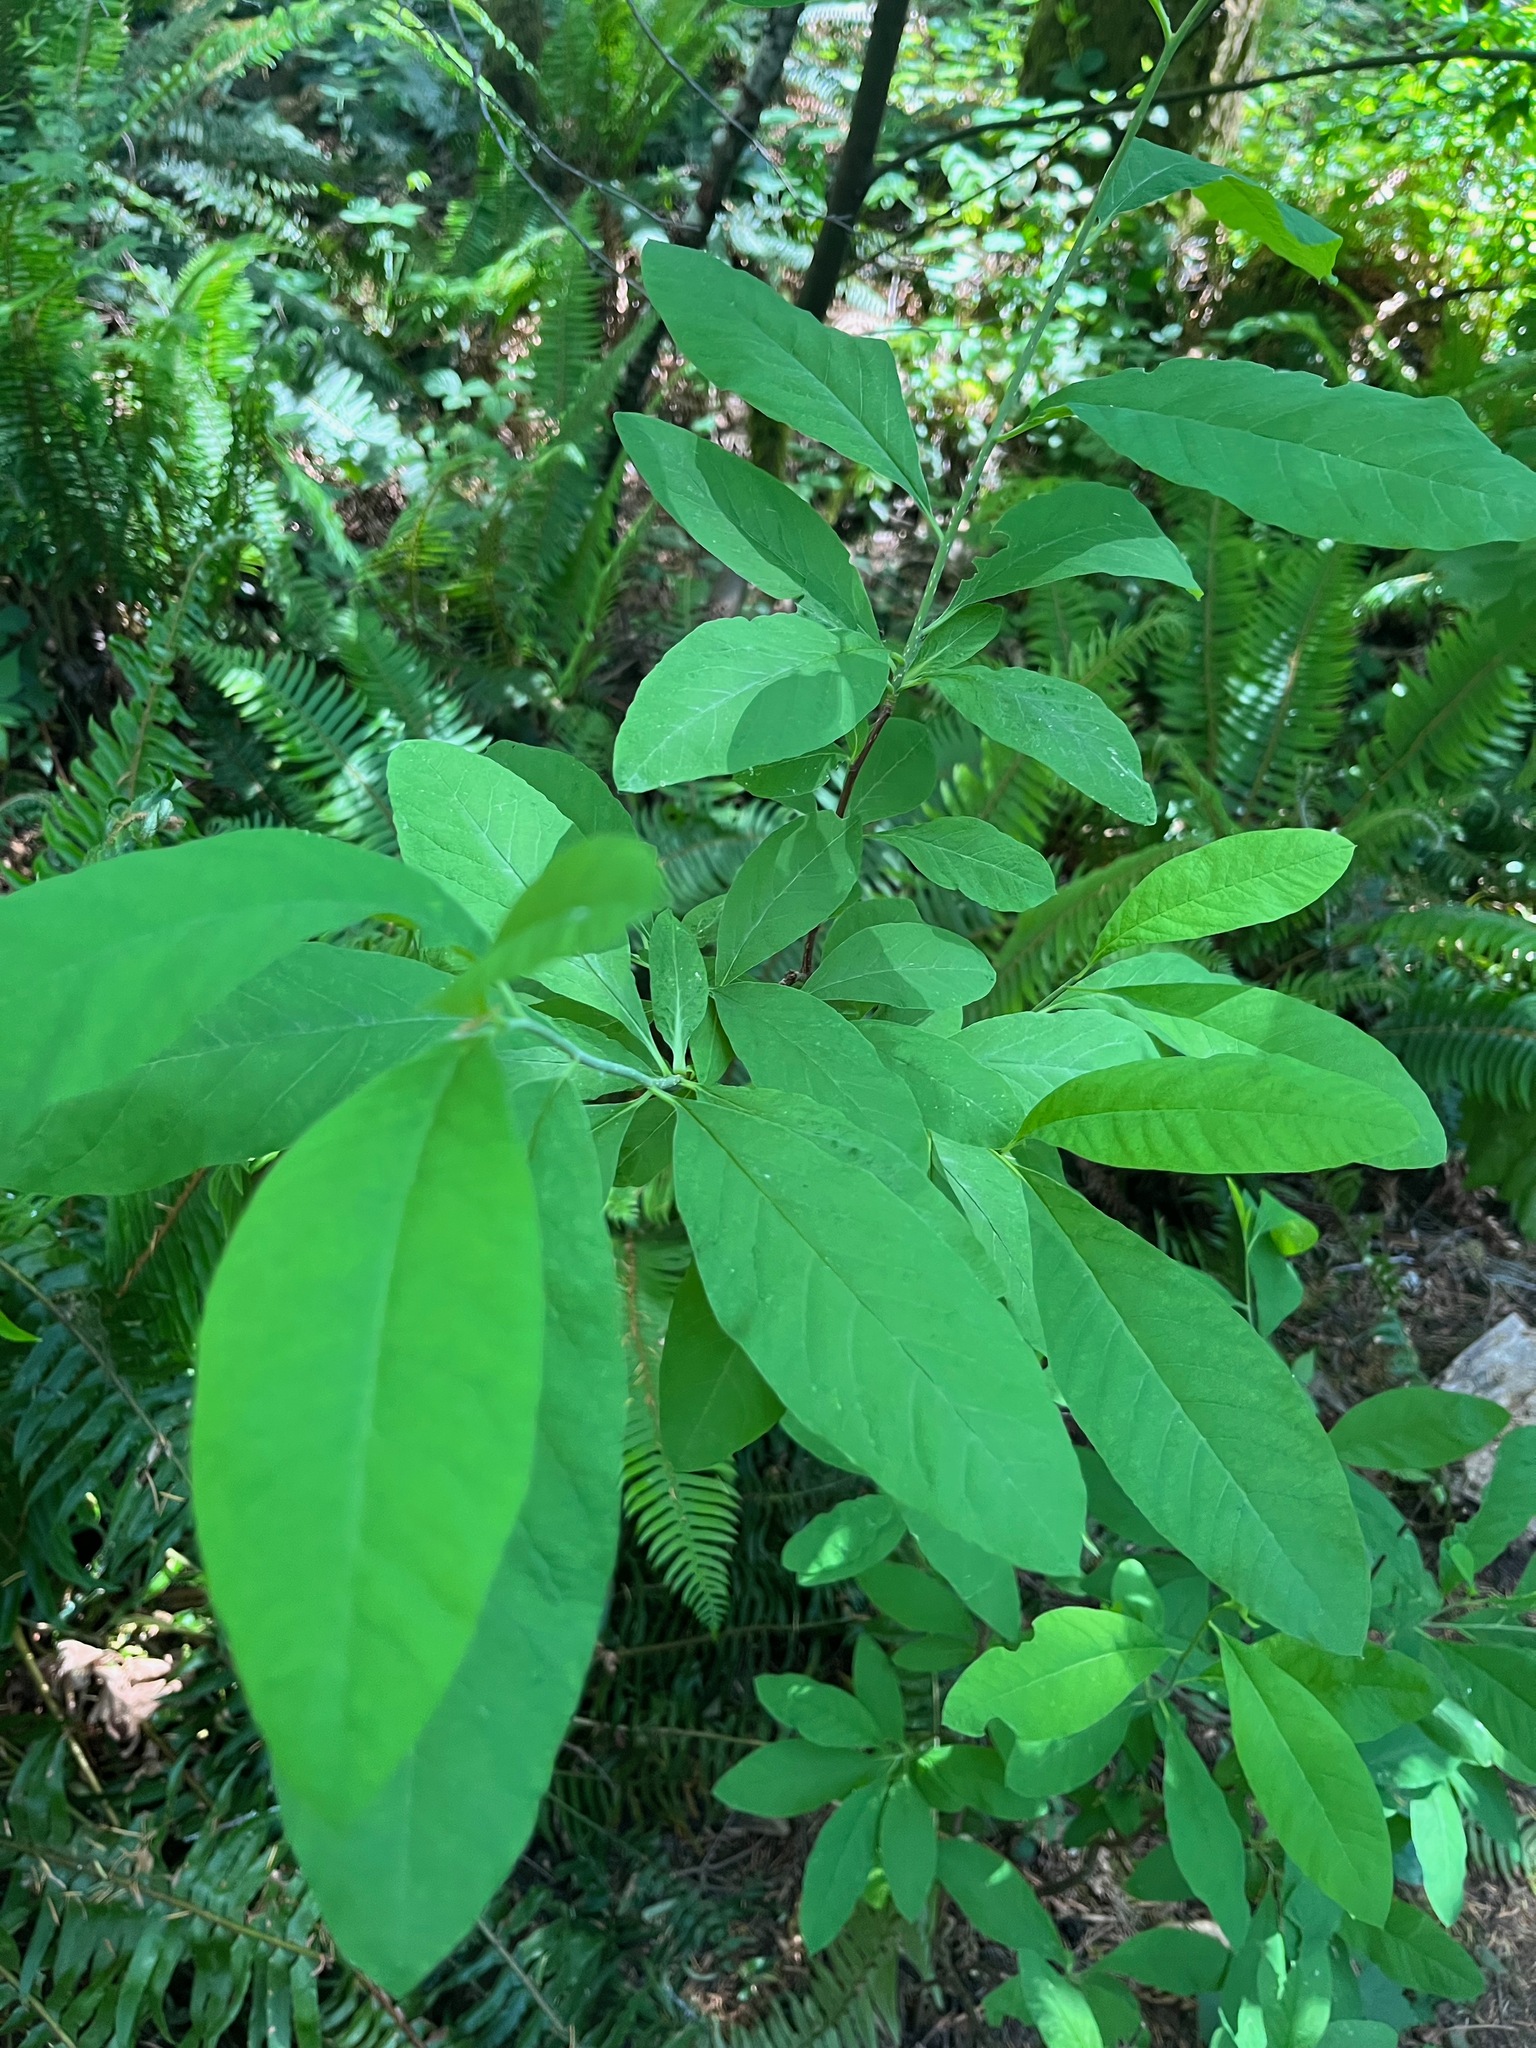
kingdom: Plantae
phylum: Tracheophyta
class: Magnoliopsida
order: Rosales
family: Rosaceae
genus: Oemleria
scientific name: Oemleria cerasiformis
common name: Osoberry
